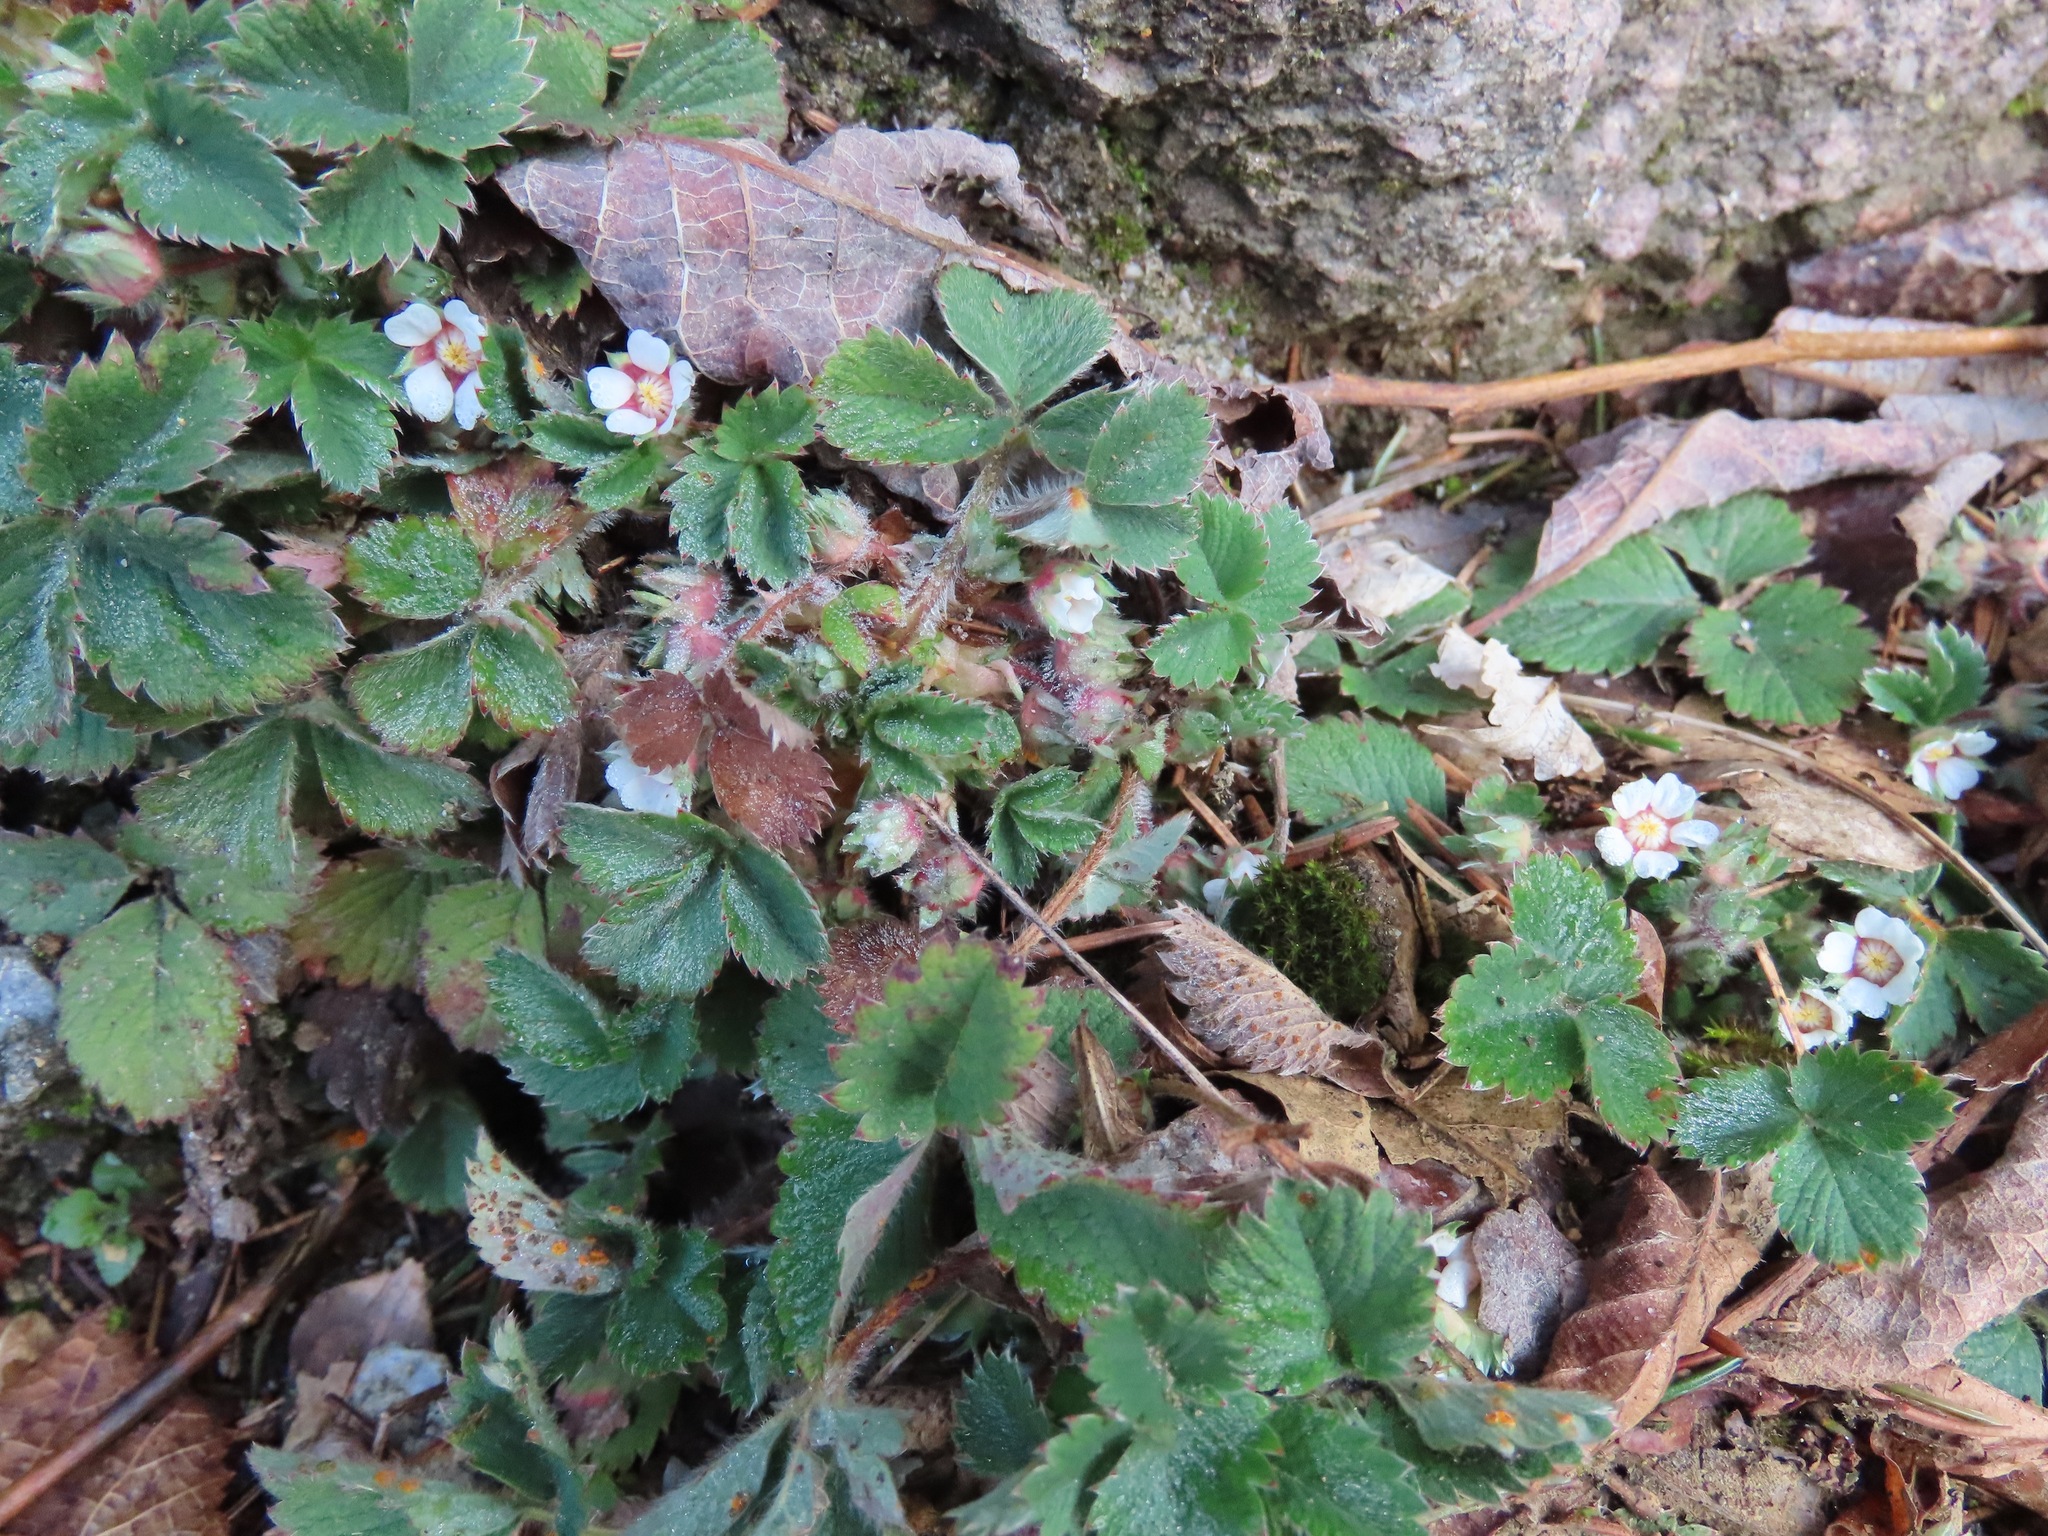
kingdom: Plantae
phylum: Tracheophyta
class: Magnoliopsida
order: Rosales
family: Rosaceae
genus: Potentilla
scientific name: Potentilla micrantha
